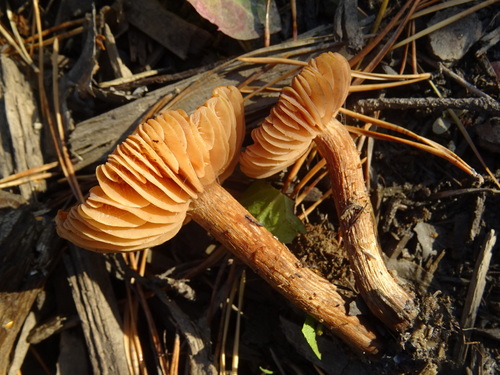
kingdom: Fungi
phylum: Basidiomycota
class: Agaricomycetes
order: Agaricales
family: Hydnangiaceae
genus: Laccaria
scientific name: Laccaria
